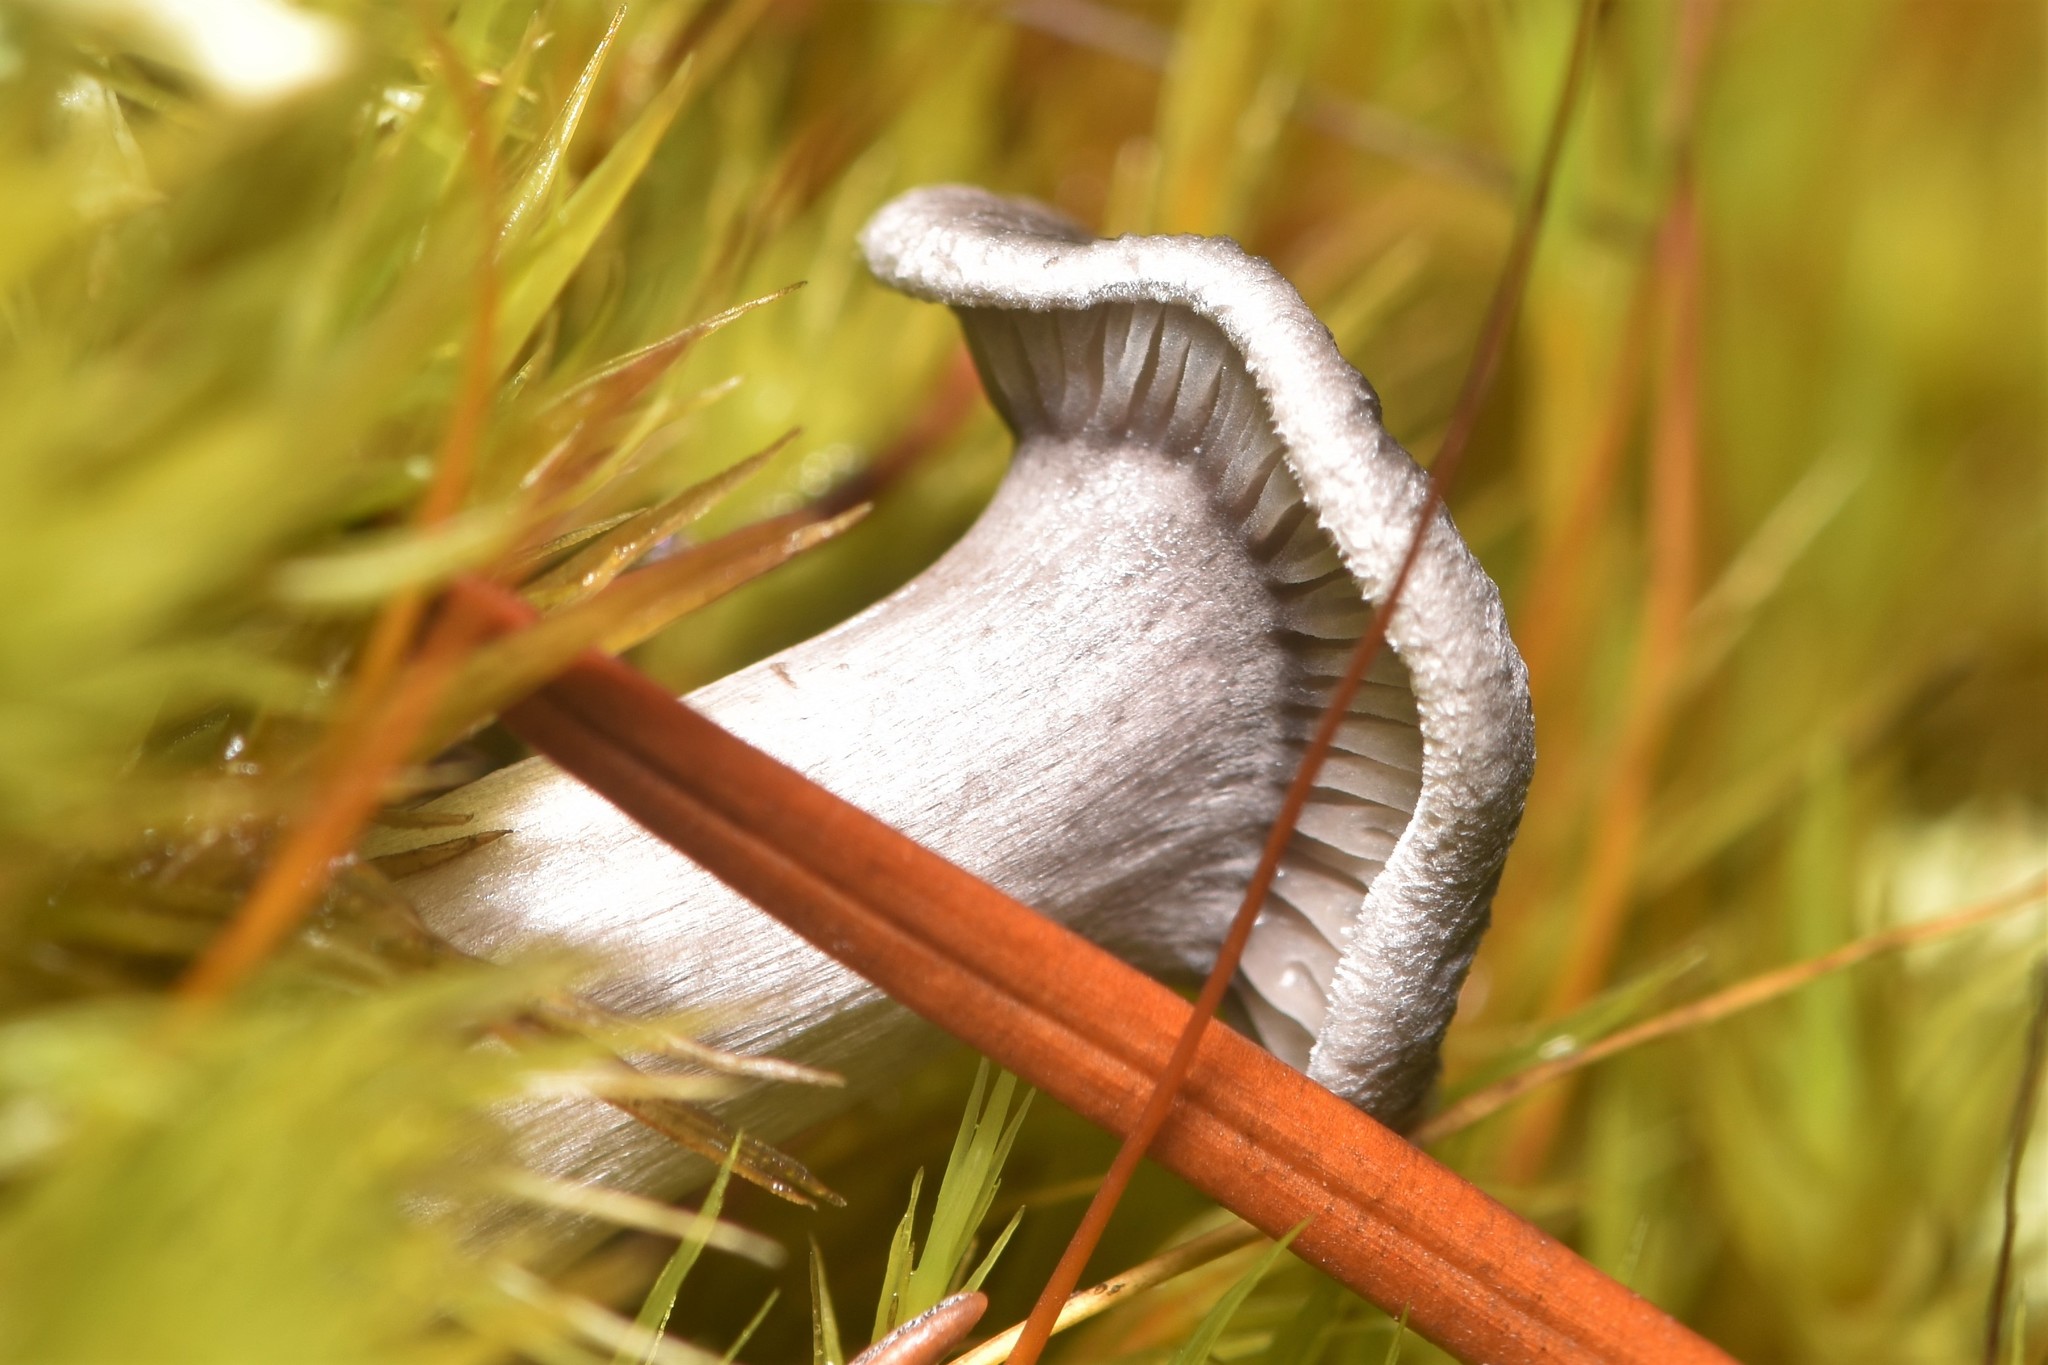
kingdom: Fungi
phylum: Basidiomycota
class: Agaricomycetes
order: Agaricales
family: Hygrophoraceae
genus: Cantharellula
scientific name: Cantharellula umbonata
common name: The humpback
